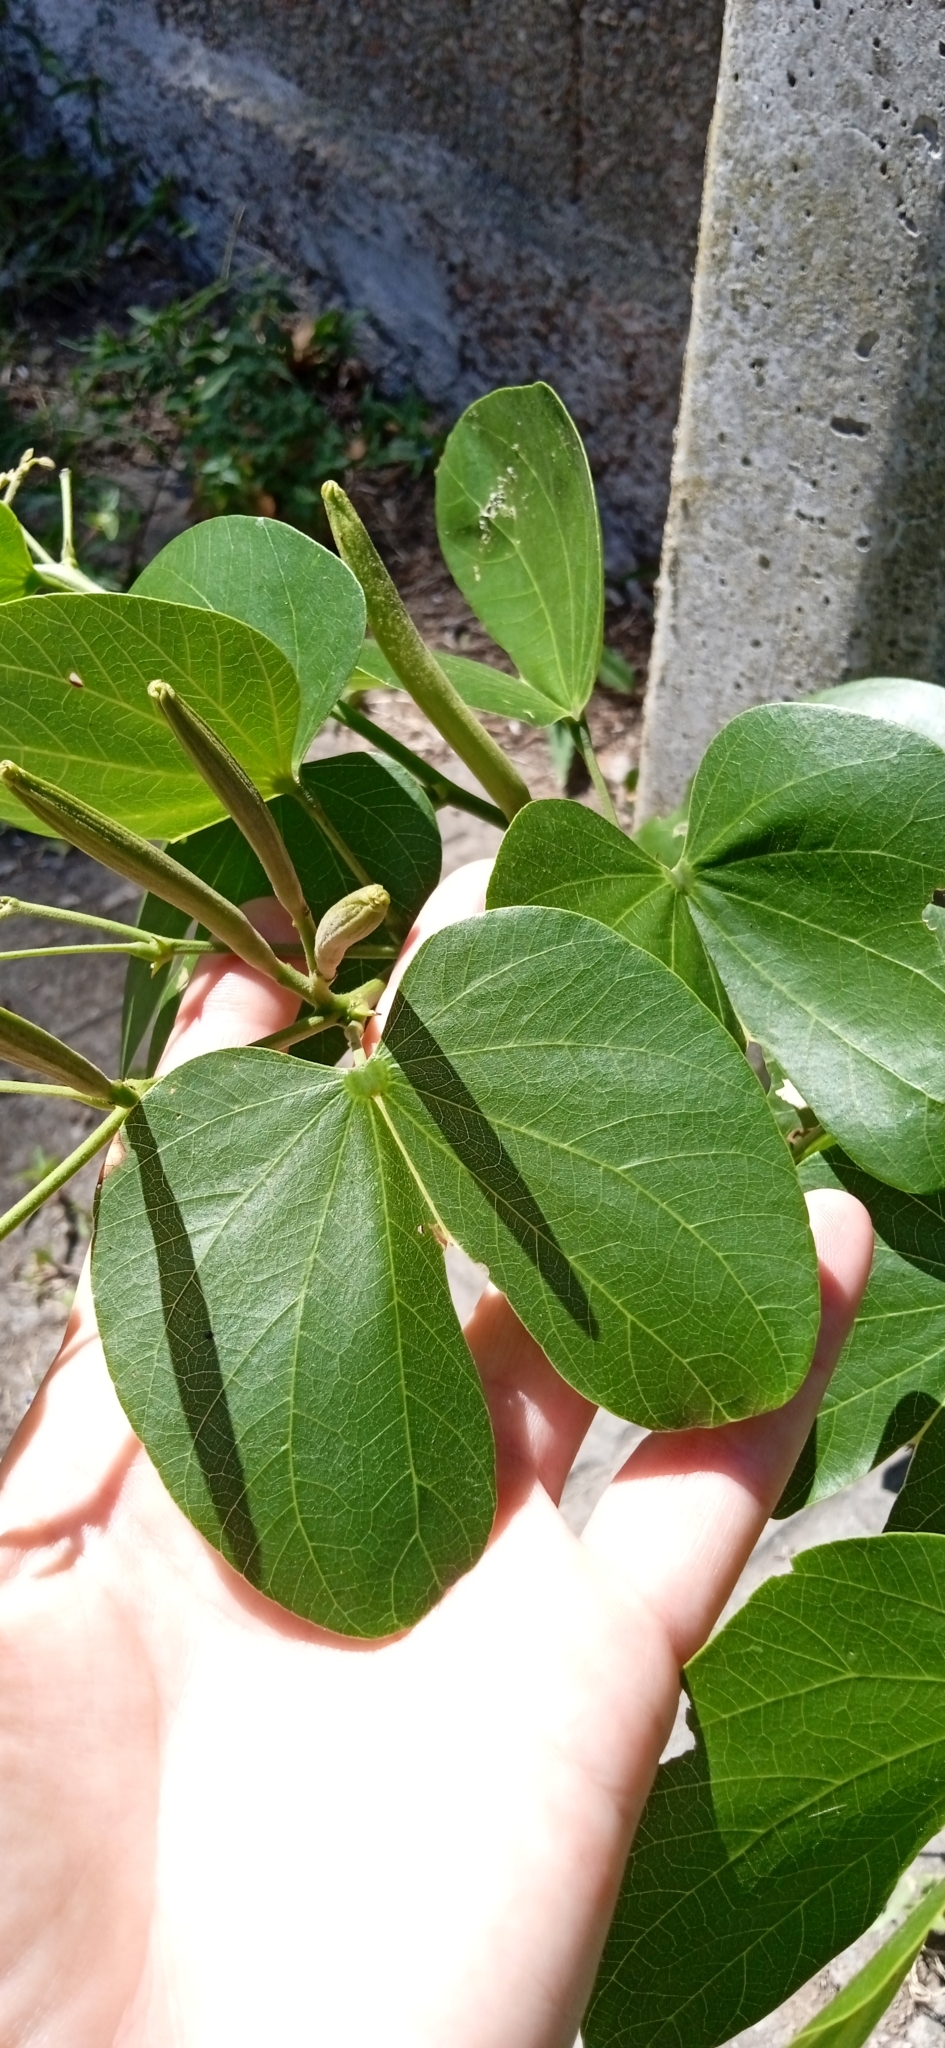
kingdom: Plantae
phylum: Tracheophyta
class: Magnoliopsida
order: Fabales
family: Fabaceae
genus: Bauhinia
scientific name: Bauhinia forficata
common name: Orchid tree
